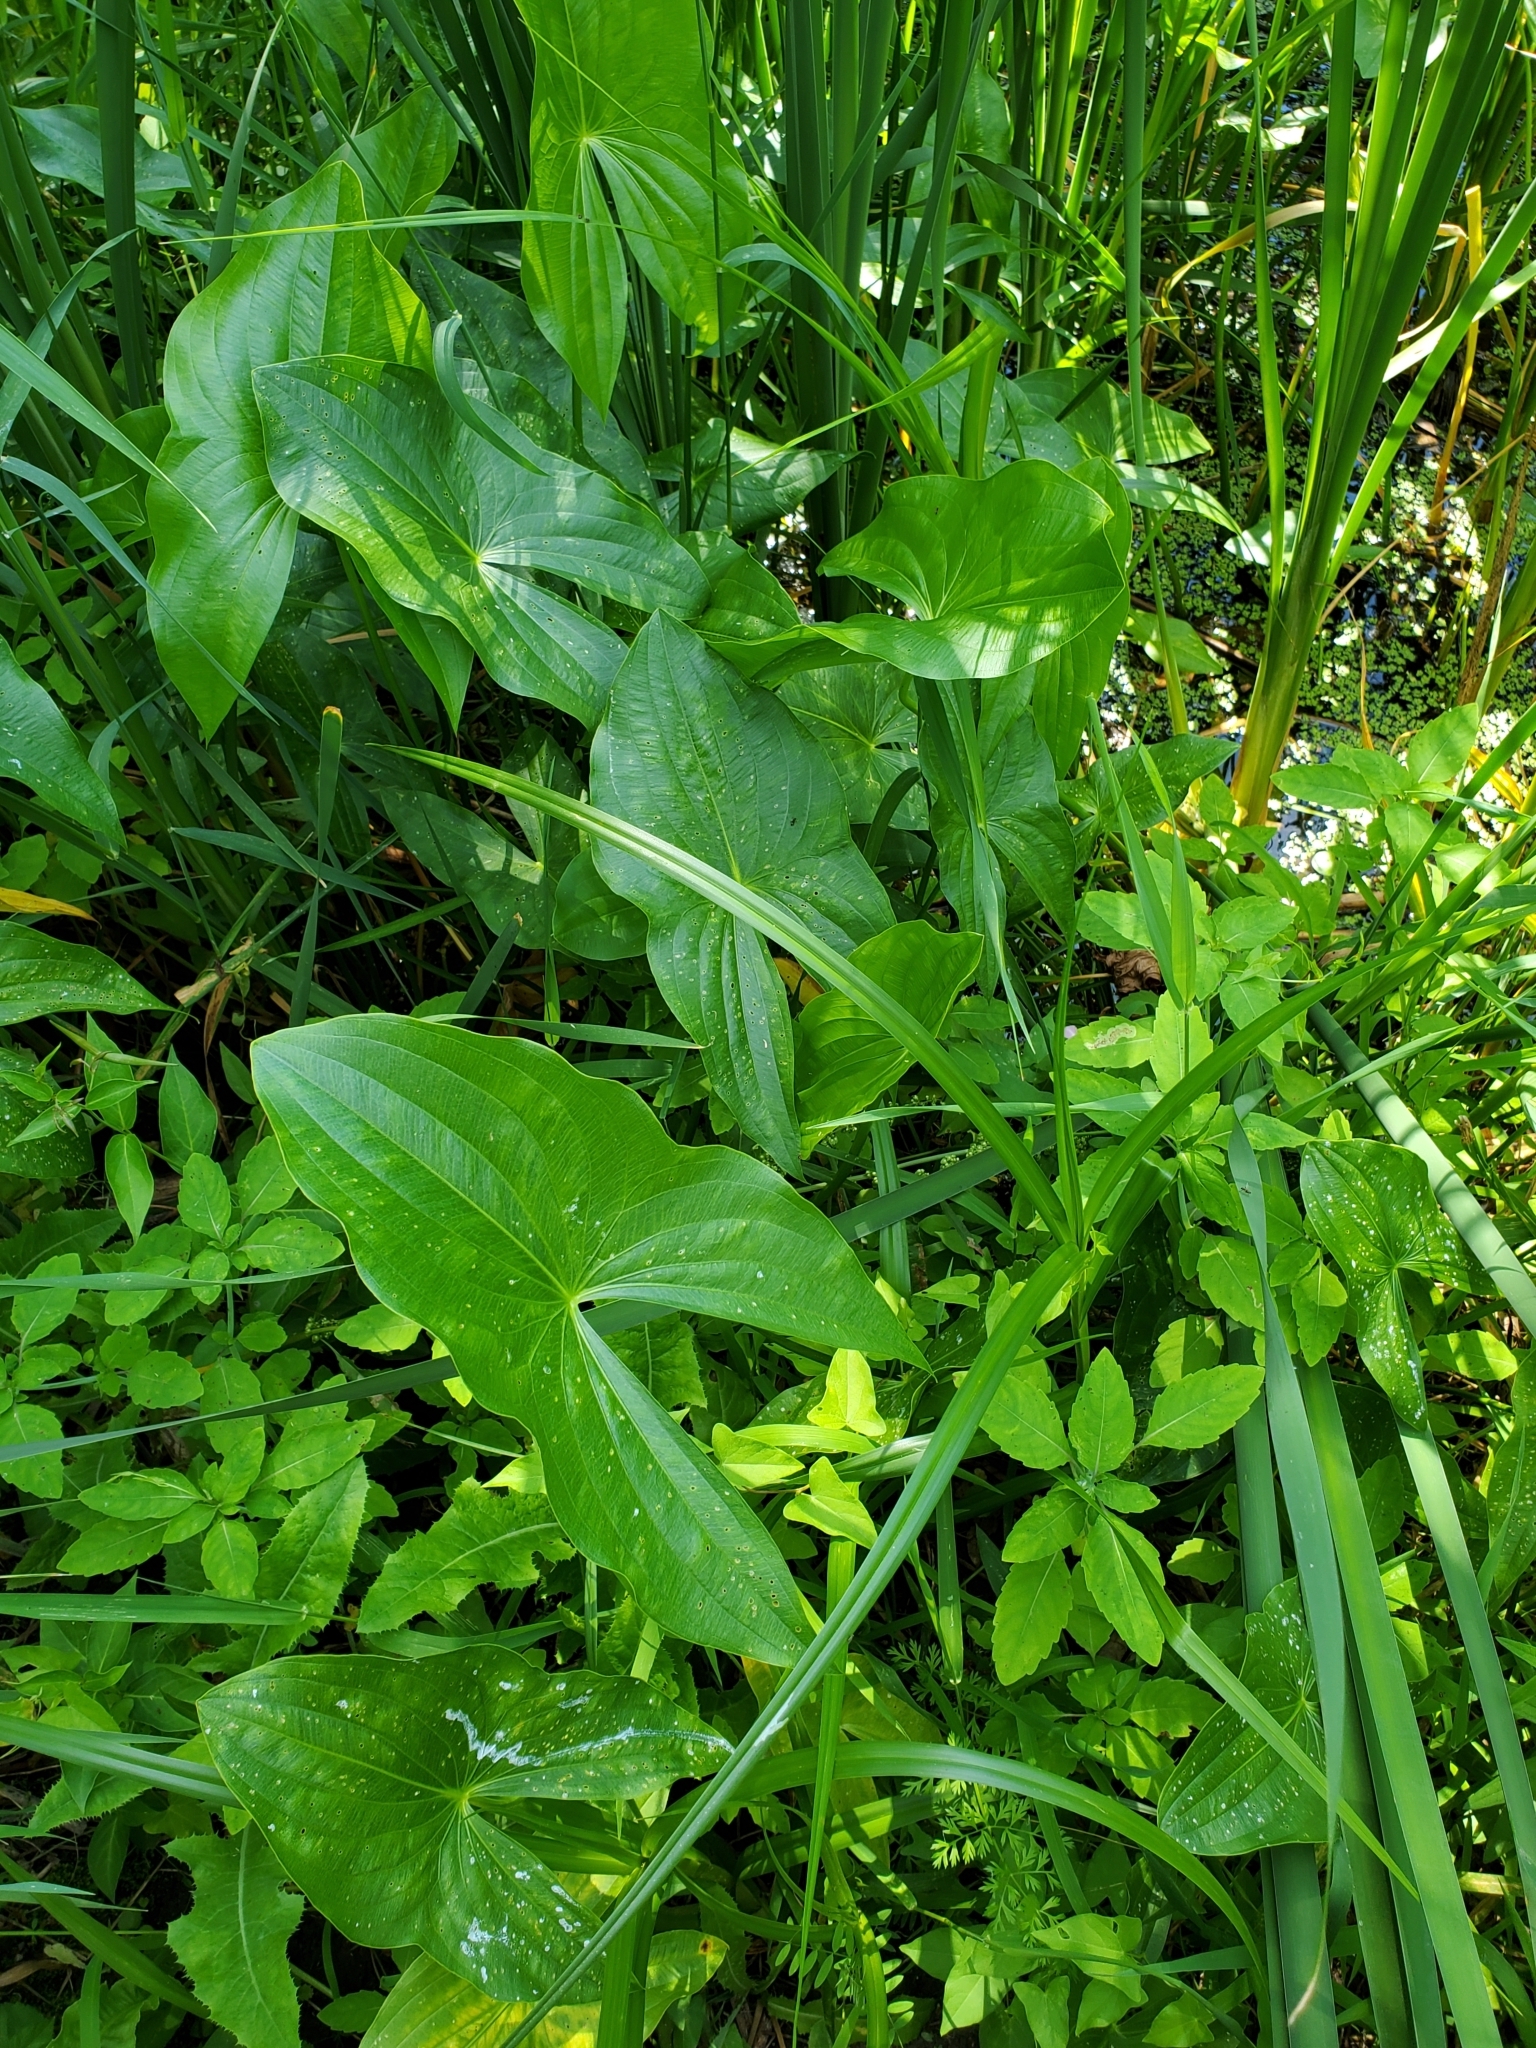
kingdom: Plantae
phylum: Tracheophyta
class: Liliopsida
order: Alismatales
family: Alismataceae
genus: Sagittaria
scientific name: Sagittaria latifolia
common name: Duck-potato
